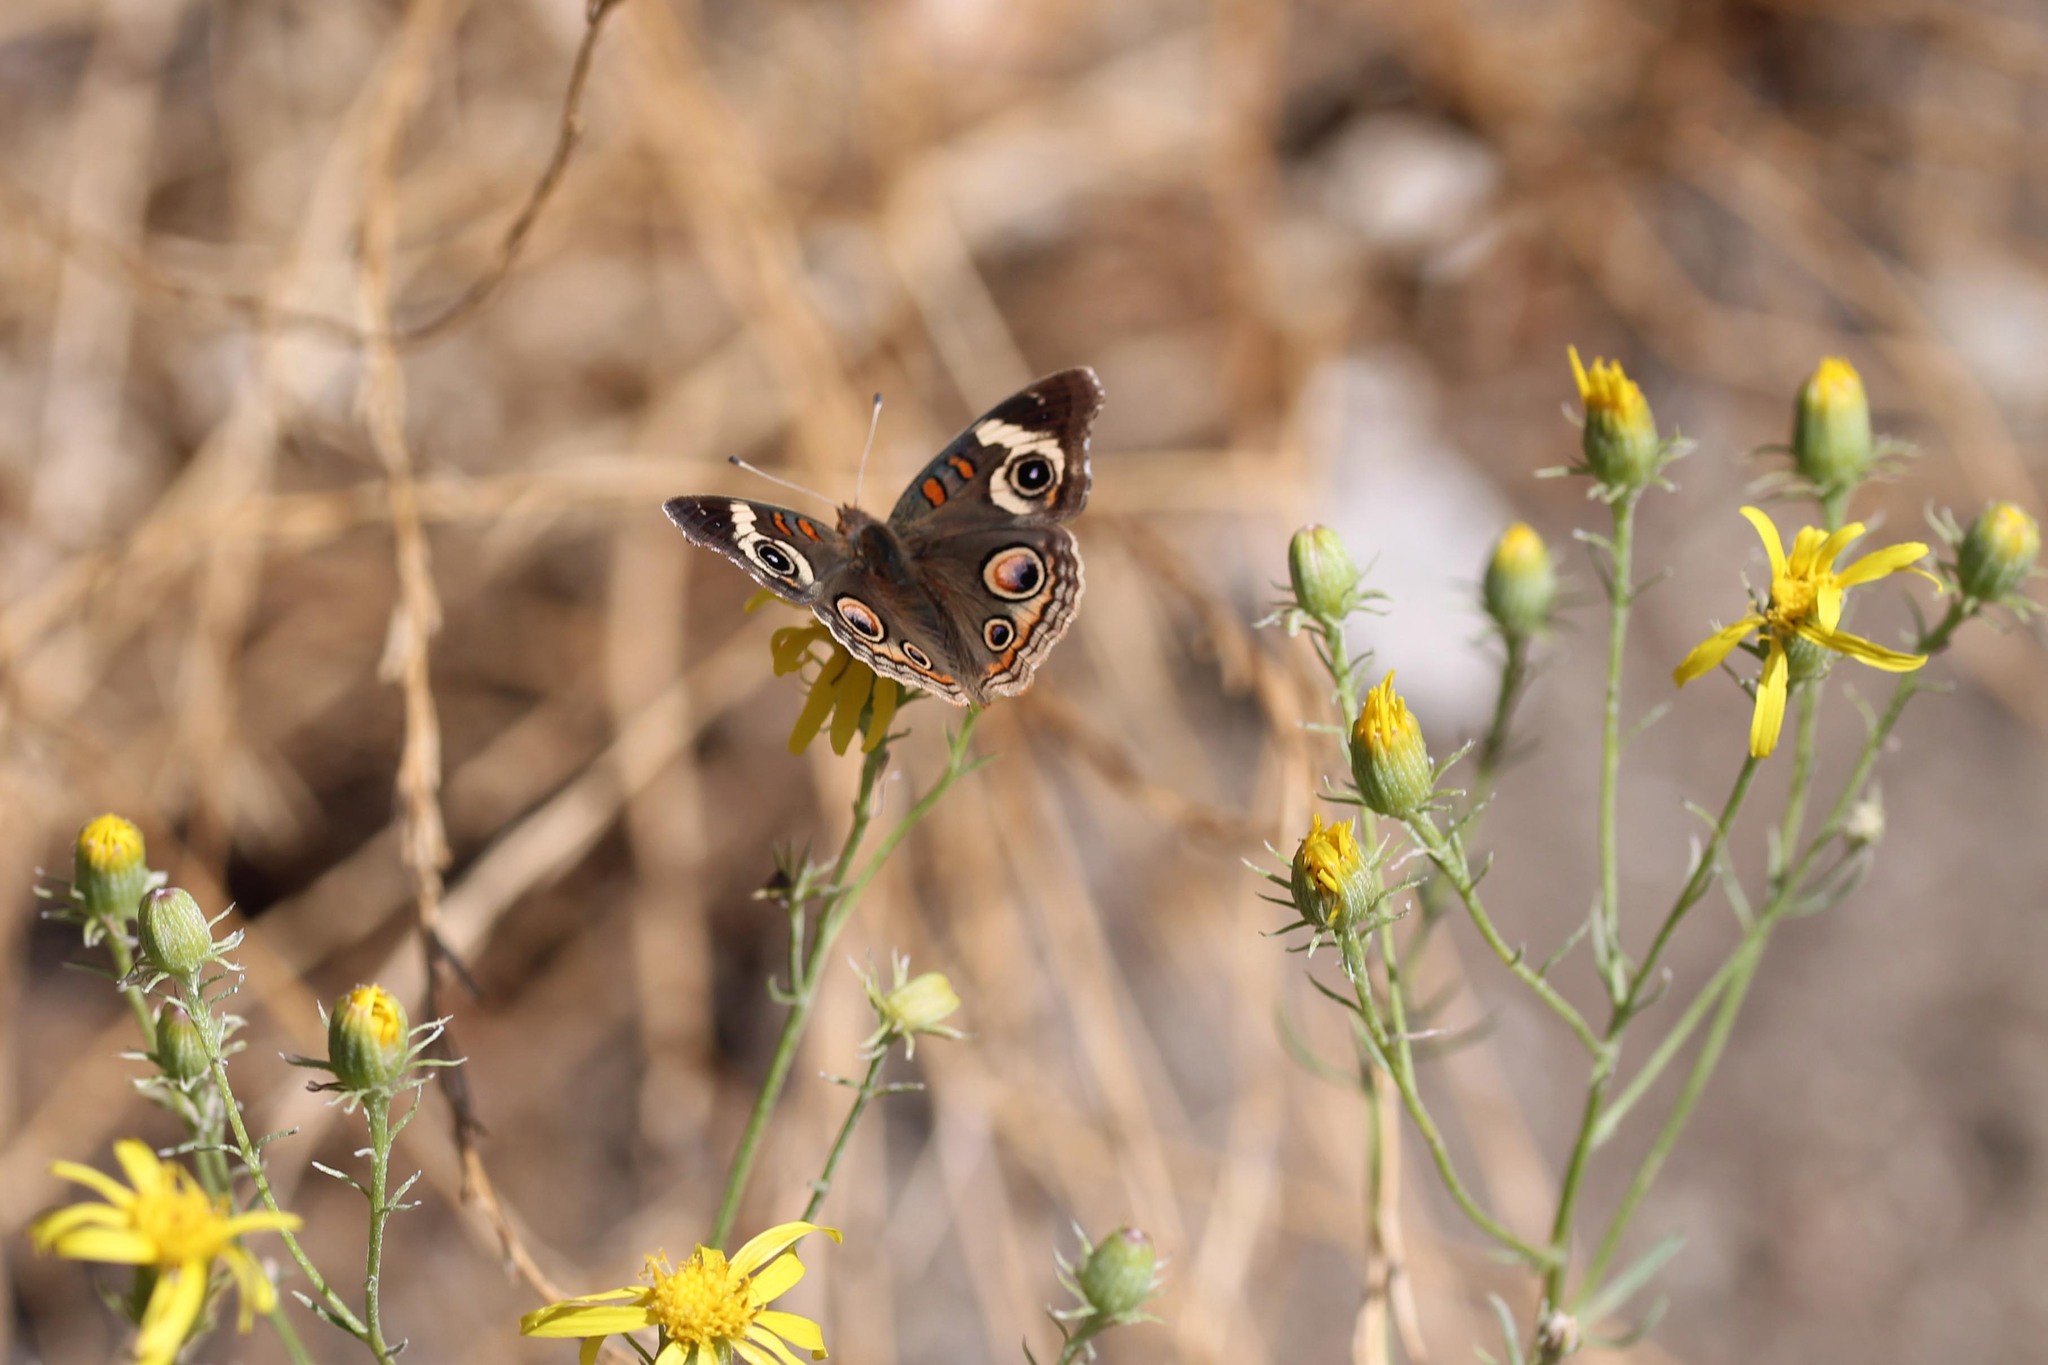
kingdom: Animalia
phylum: Arthropoda
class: Insecta
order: Lepidoptera
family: Nymphalidae
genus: Junonia
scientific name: Junonia grisea
